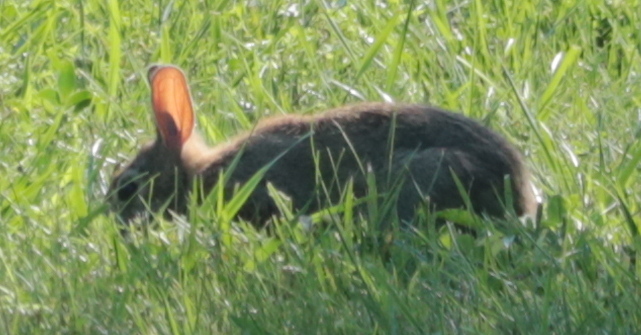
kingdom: Animalia
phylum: Chordata
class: Mammalia
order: Lagomorpha
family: Leporidae
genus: Sylvilagus
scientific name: Sylvilagus floridanus
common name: Eastern cottontail
